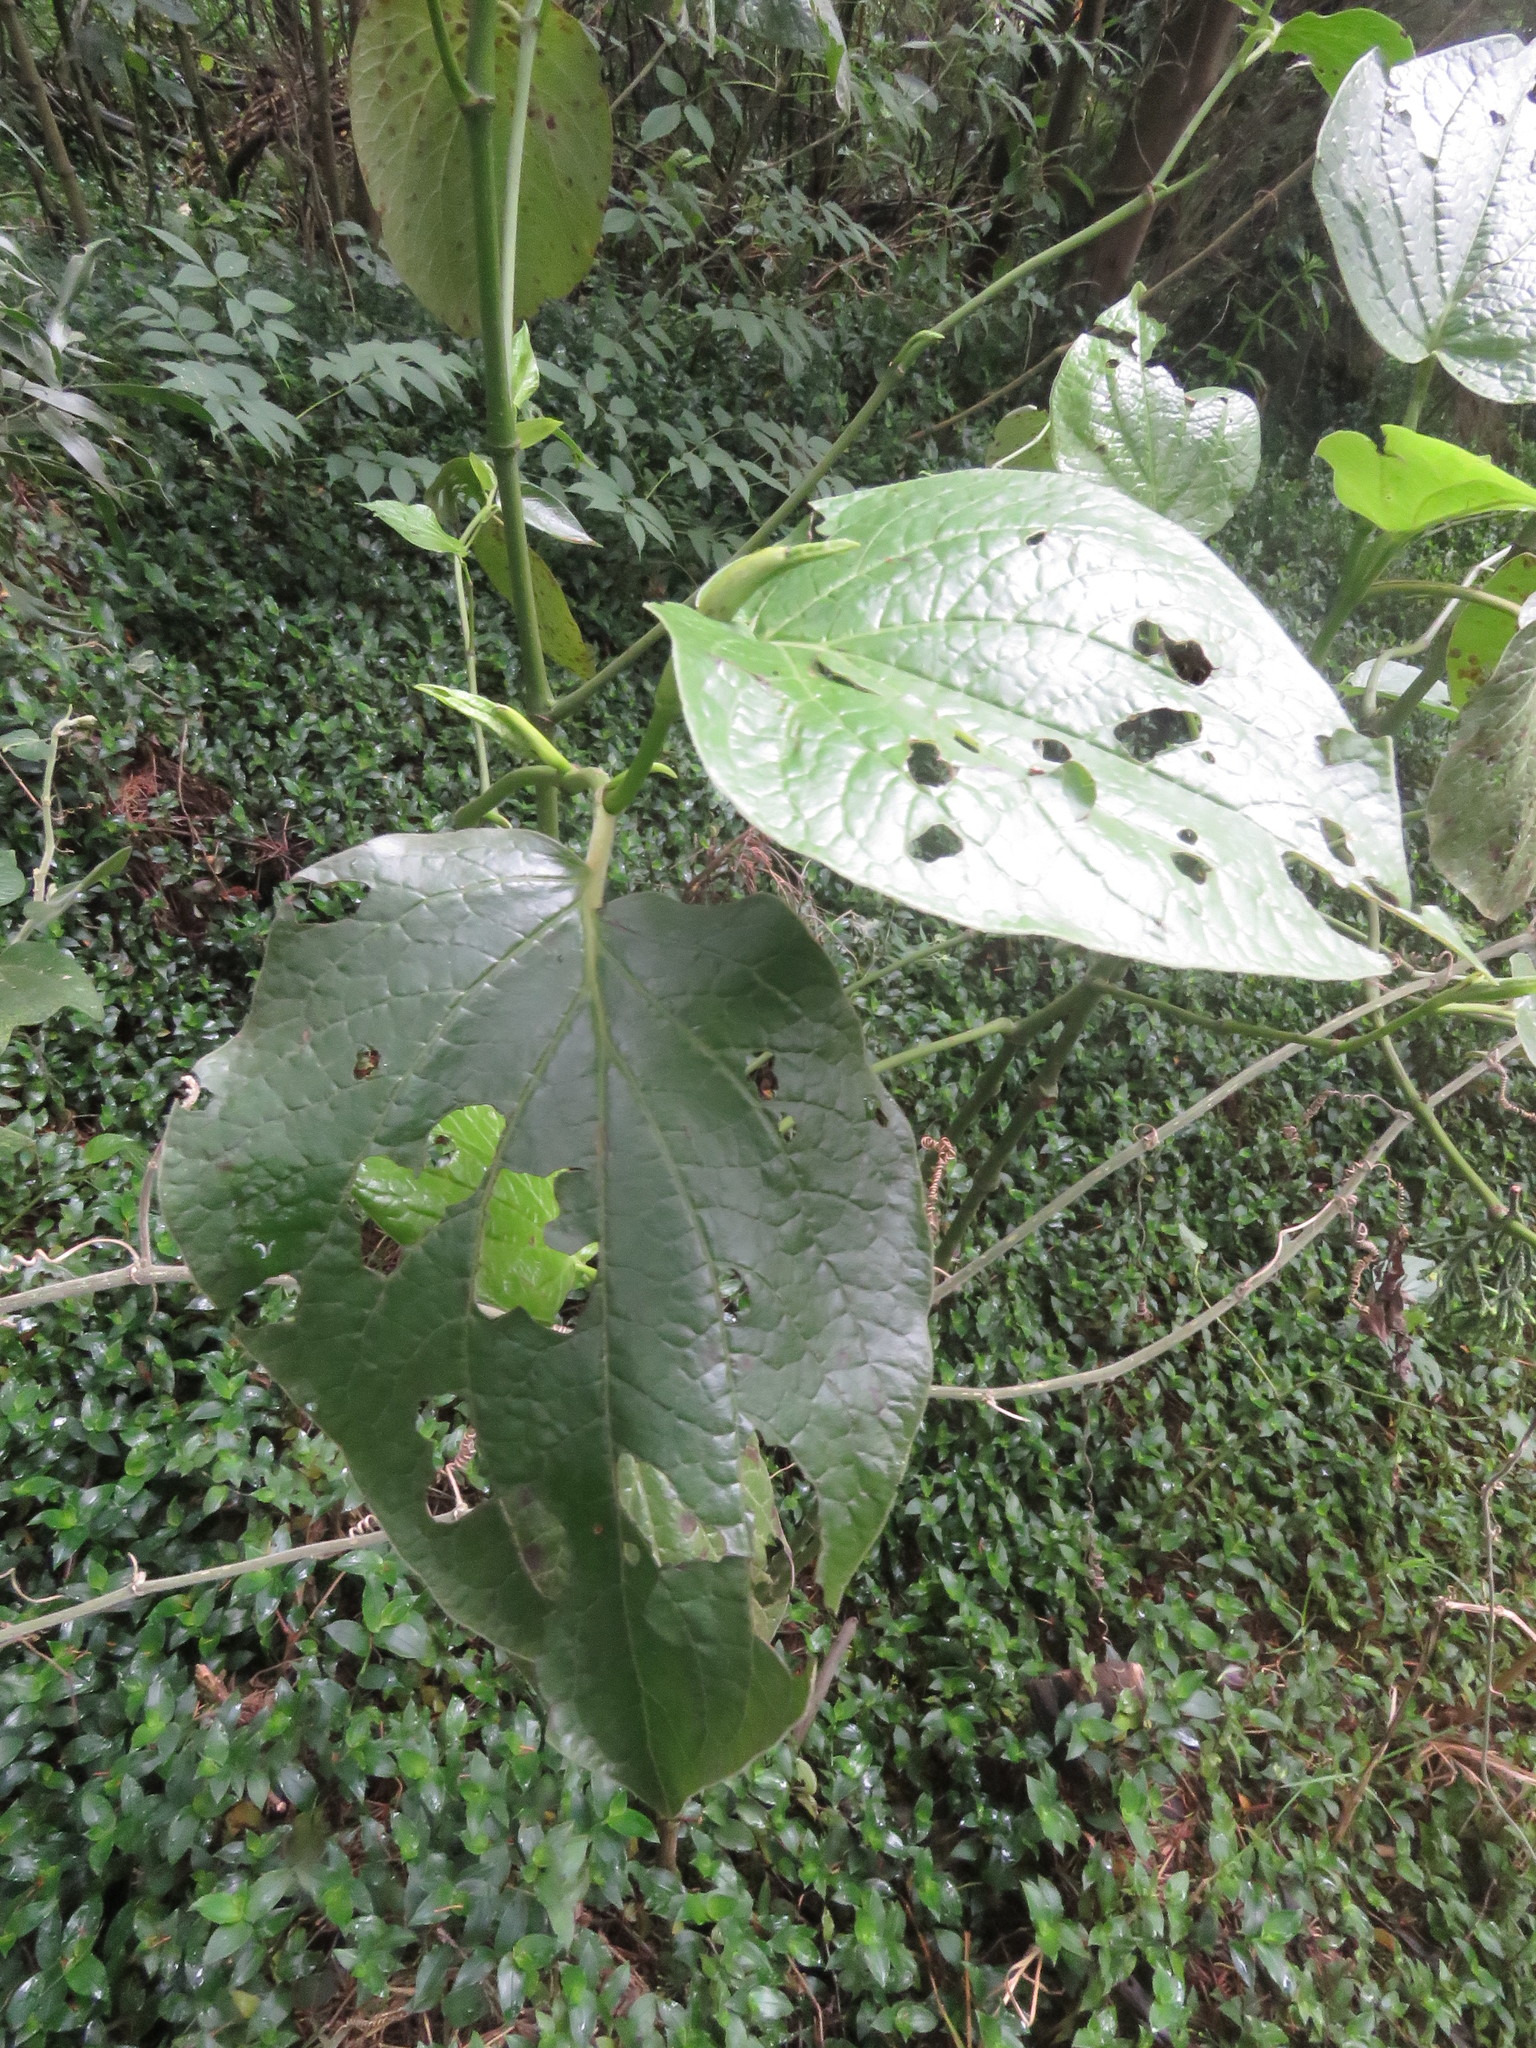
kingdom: Plantae
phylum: Tracheophyta
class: Magnoliopsida
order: Piperales
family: Piperaceae
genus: Piper
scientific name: Piper barbatum
